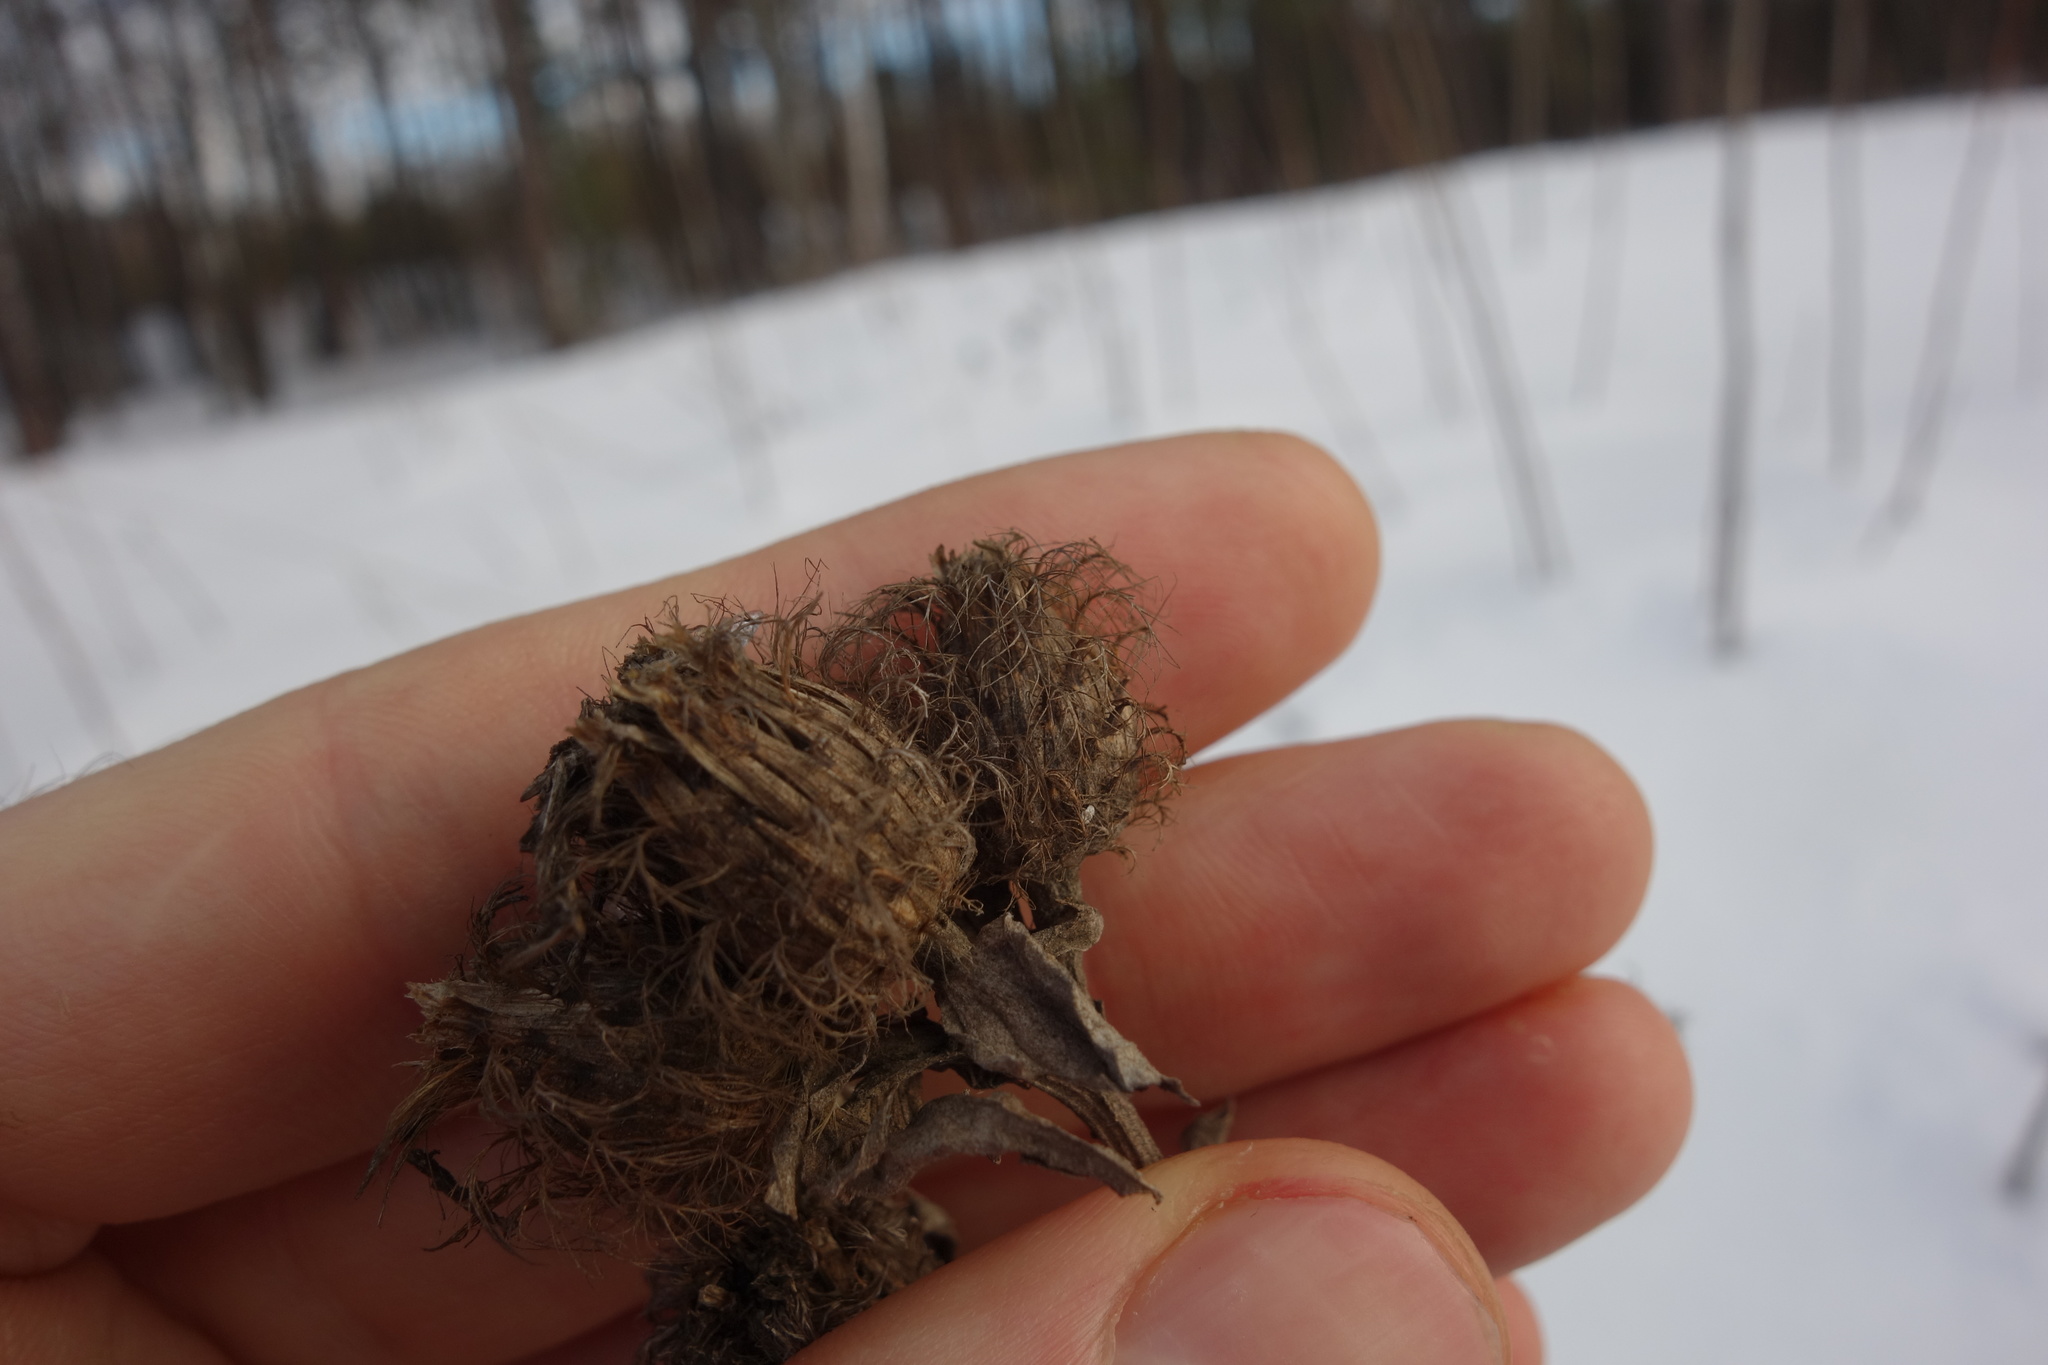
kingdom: Plantae
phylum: Tracheophyta
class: Magnoliopsida
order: Asterales
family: Asteraceae
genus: Centaurea
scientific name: Centaurea pseudophrygia
